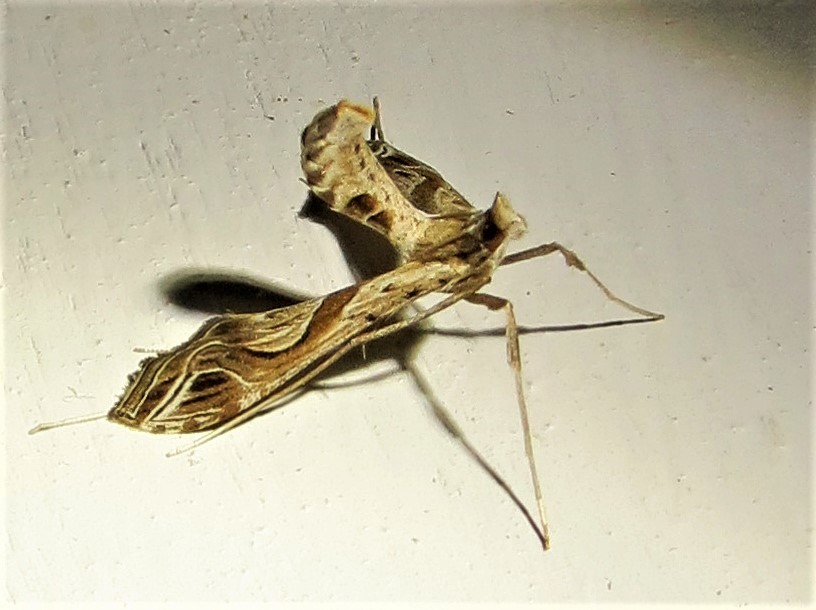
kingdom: Animalia
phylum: Arthropoda
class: Insecta
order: Lepidoptera
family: Crambidae
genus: Lineodes
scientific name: Lineodes integra
